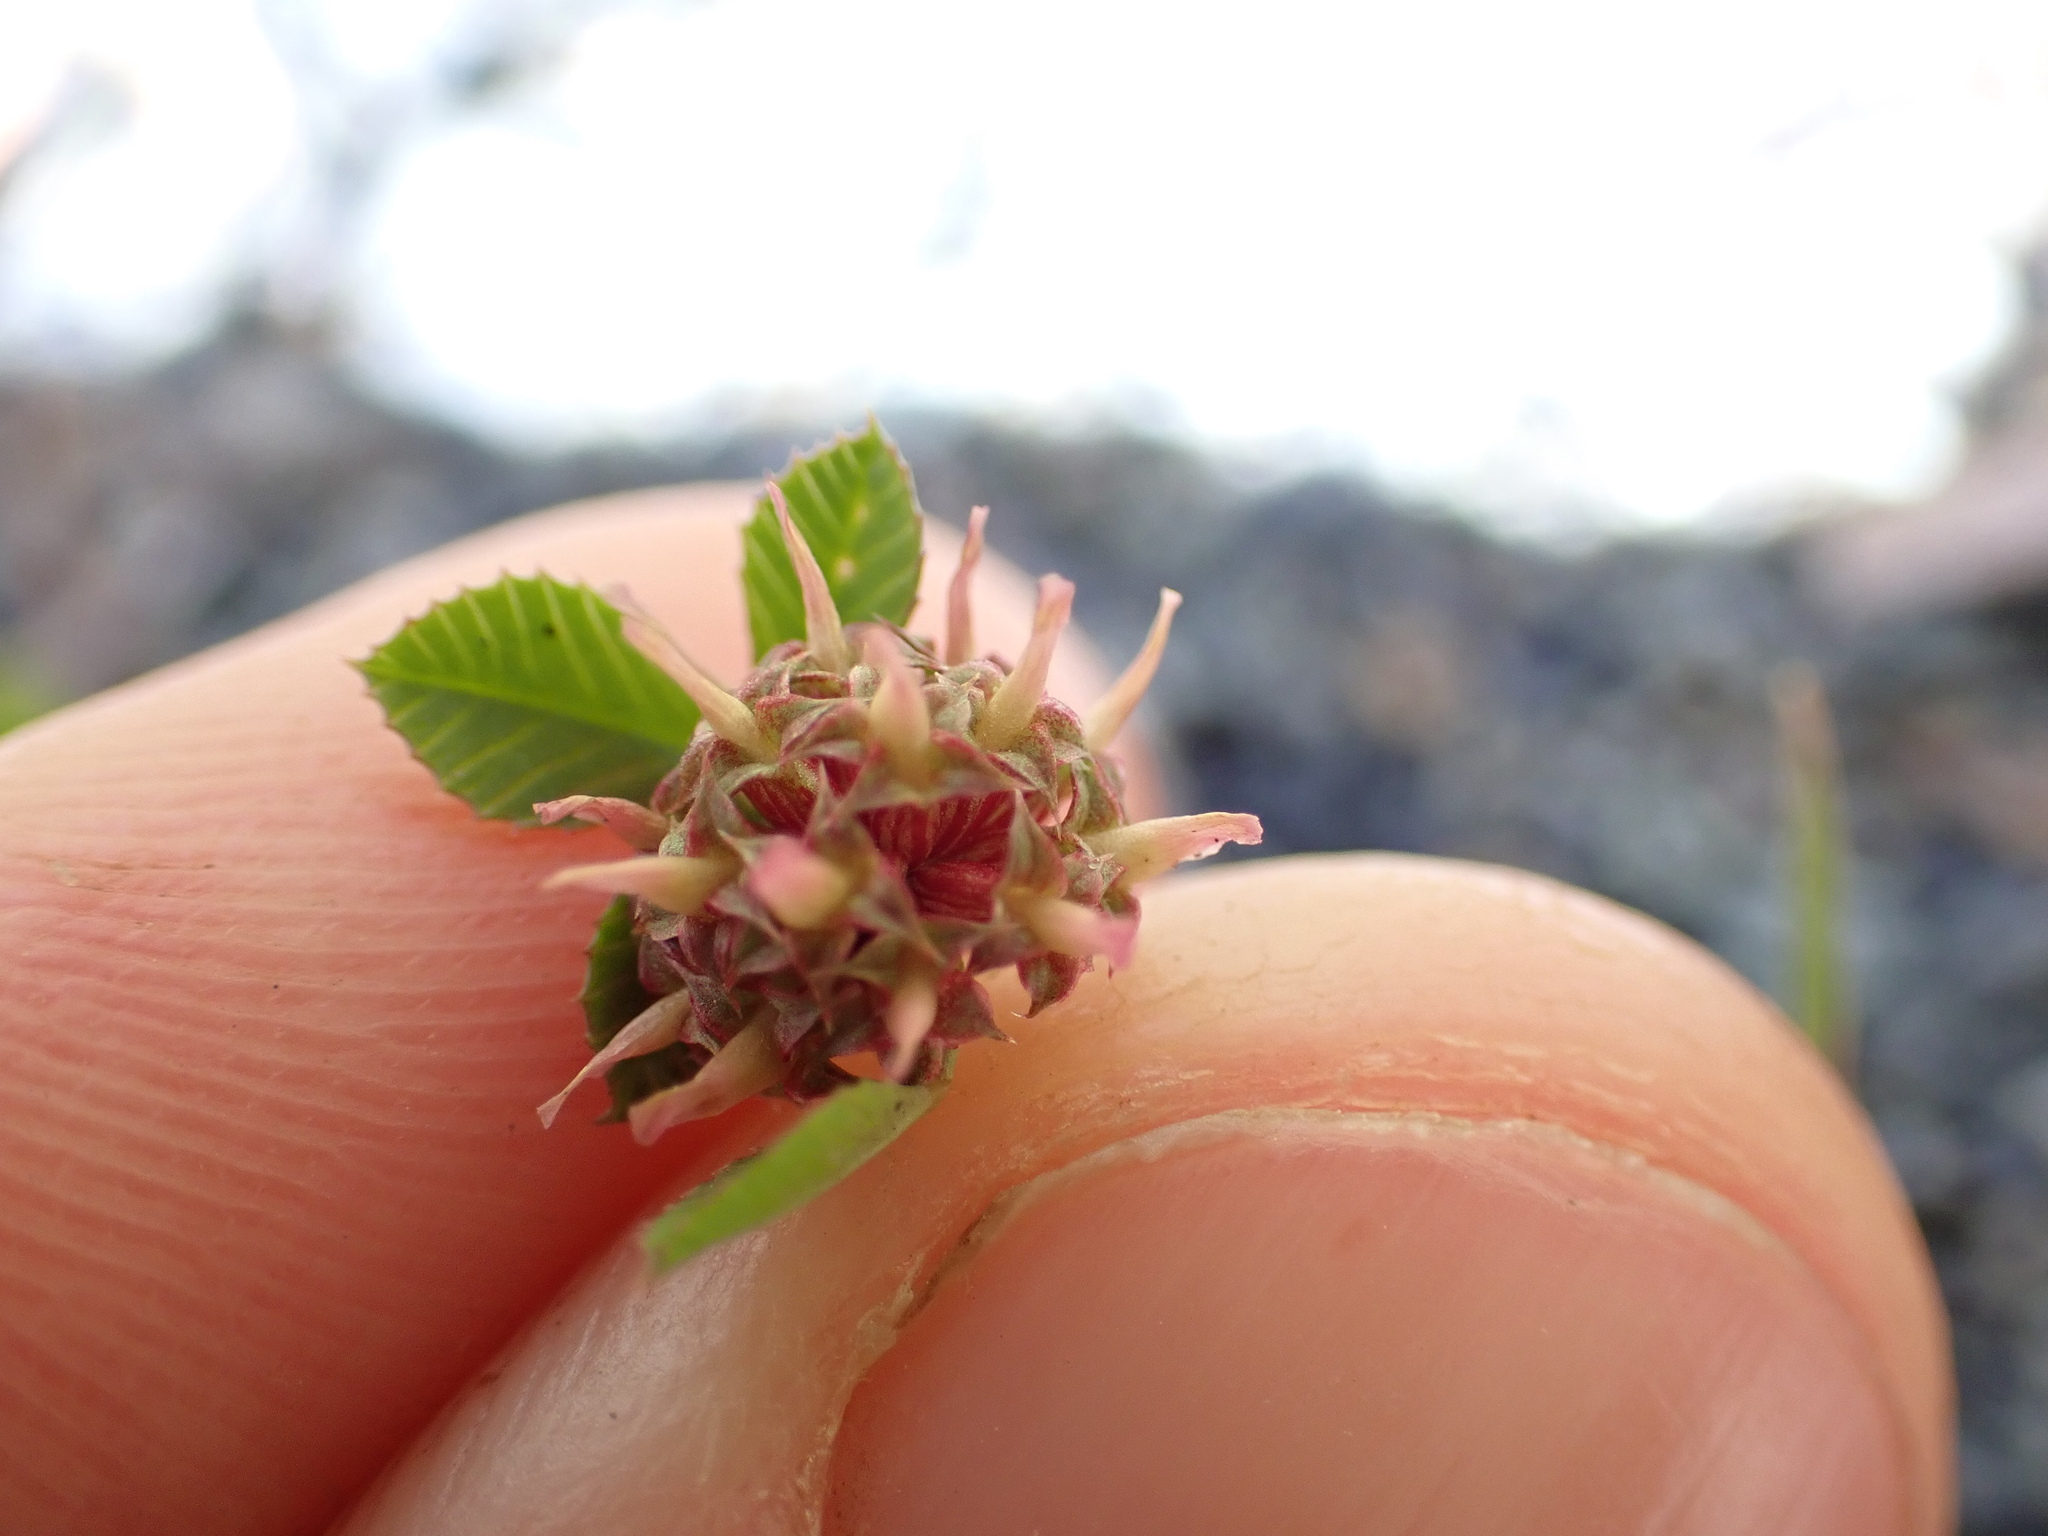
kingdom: Plantae
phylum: Tracheophyta
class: Magnoliopsida
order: Fabales
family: Fabaceae
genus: Trifolium
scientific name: Trifolium glomeratum
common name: Clustered clover
